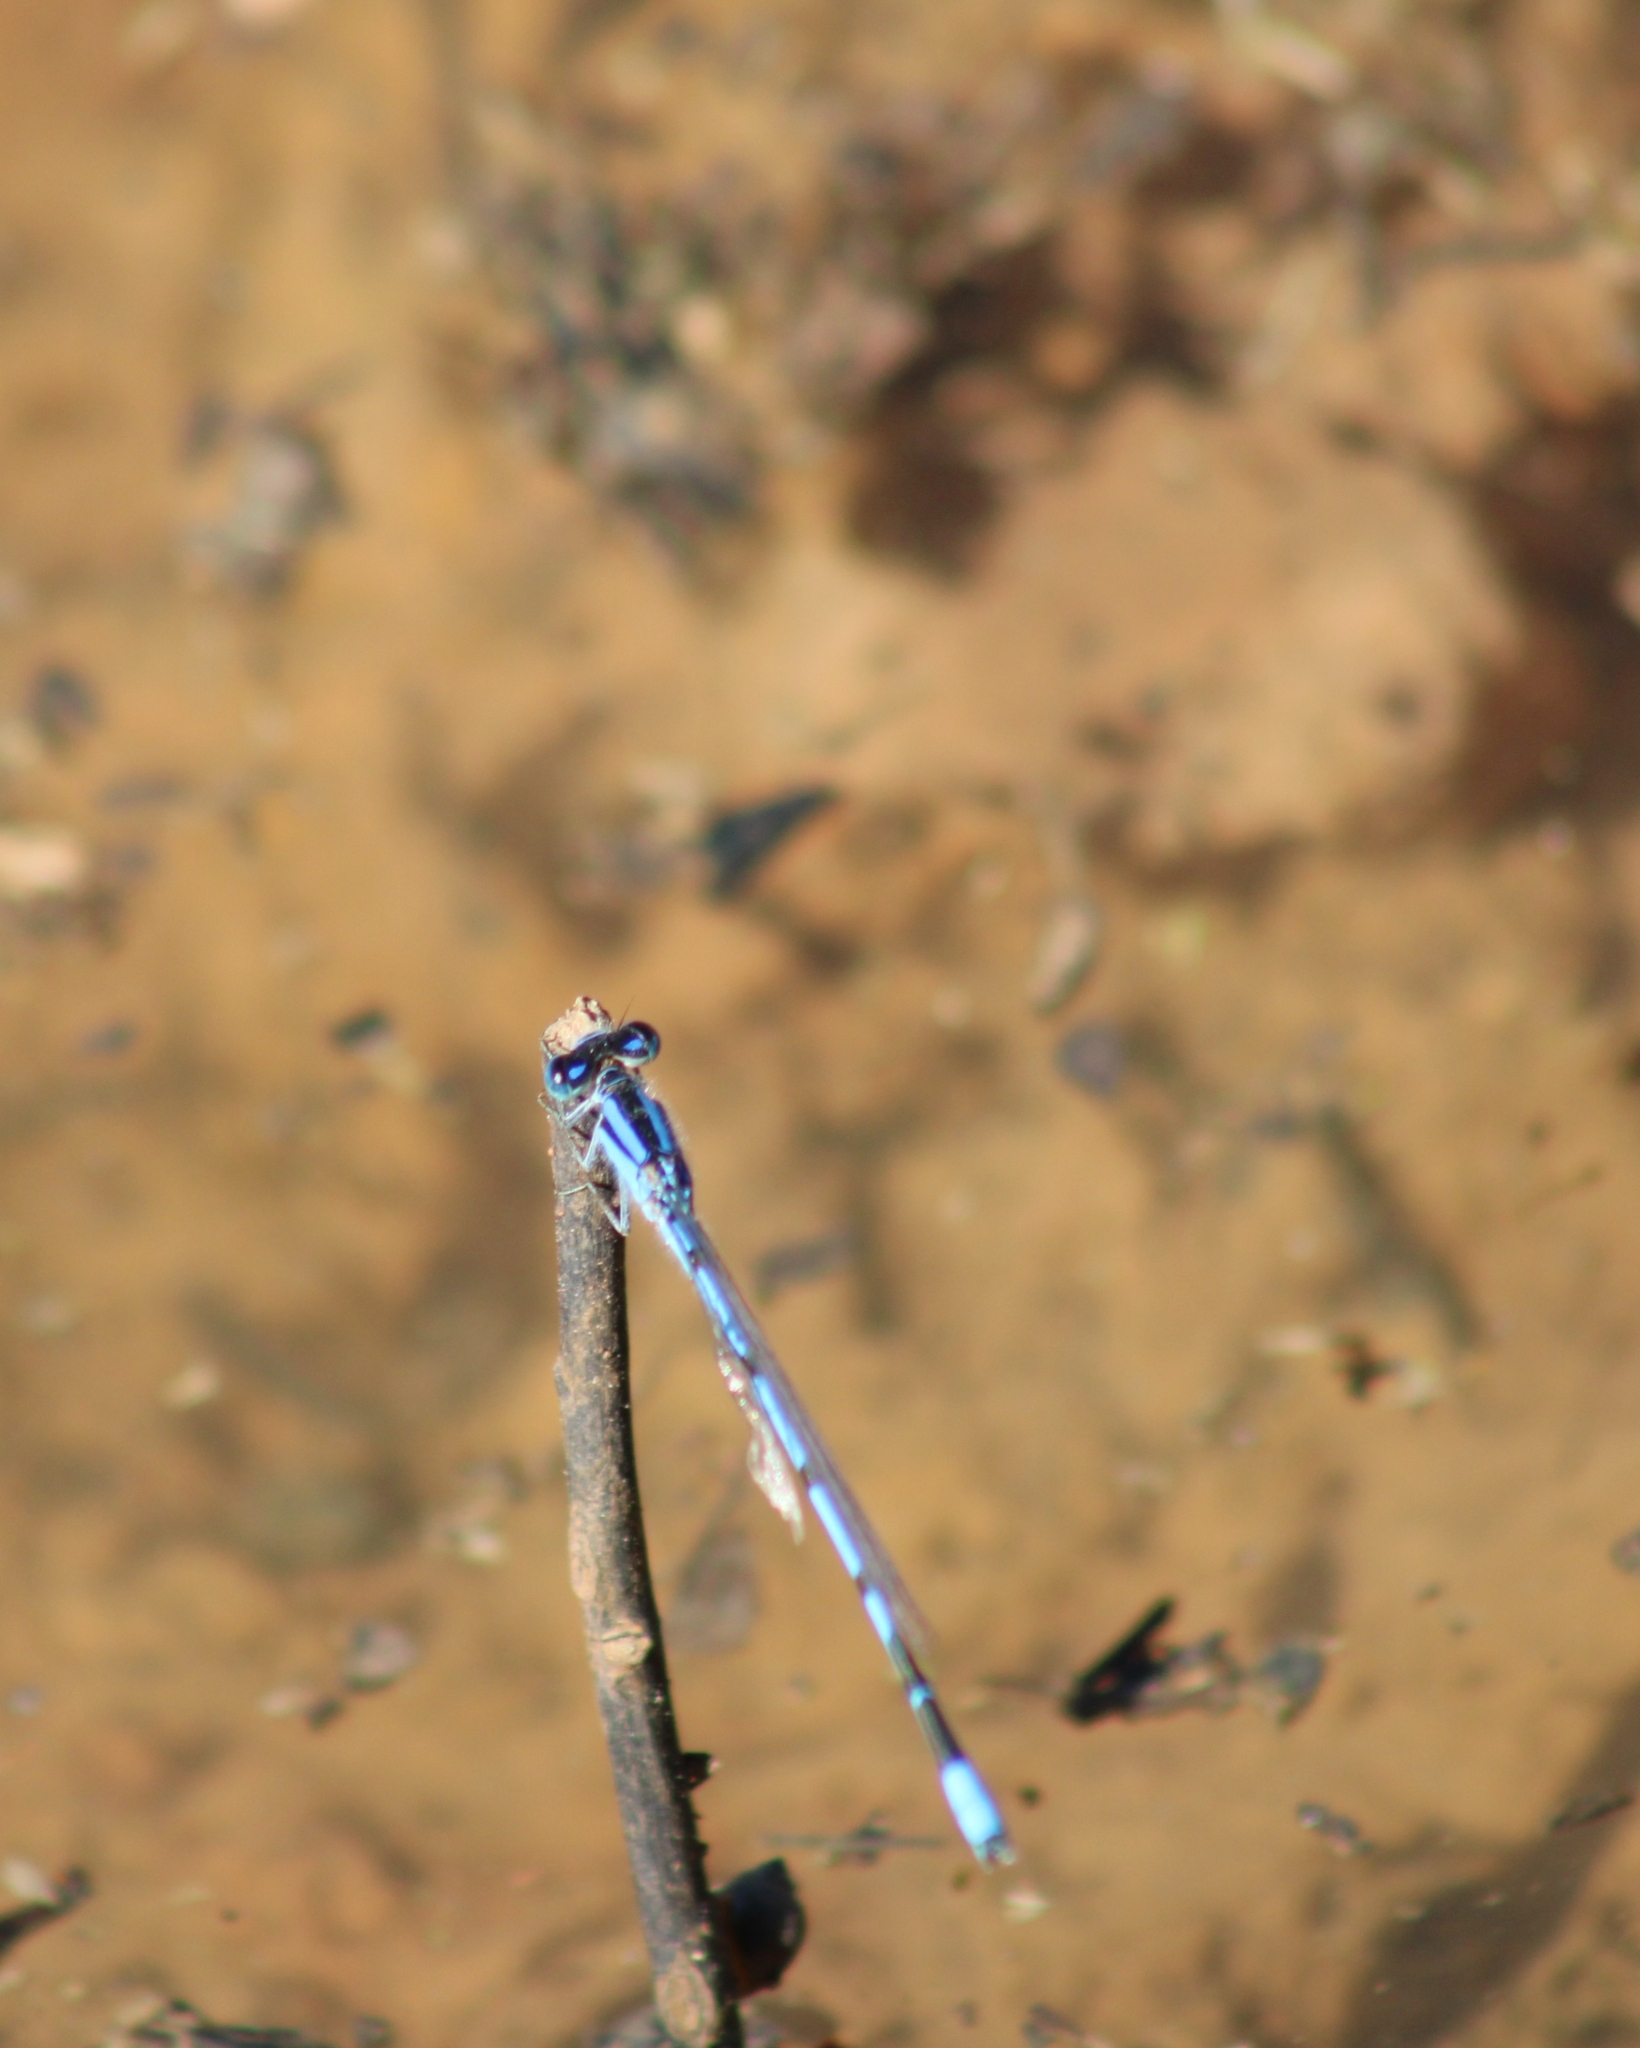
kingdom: Animalia
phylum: Arthropoda
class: Insecta
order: Odonata
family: Coenagrionidae
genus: Enallagma
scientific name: Enallagma civile
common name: Damselfly
